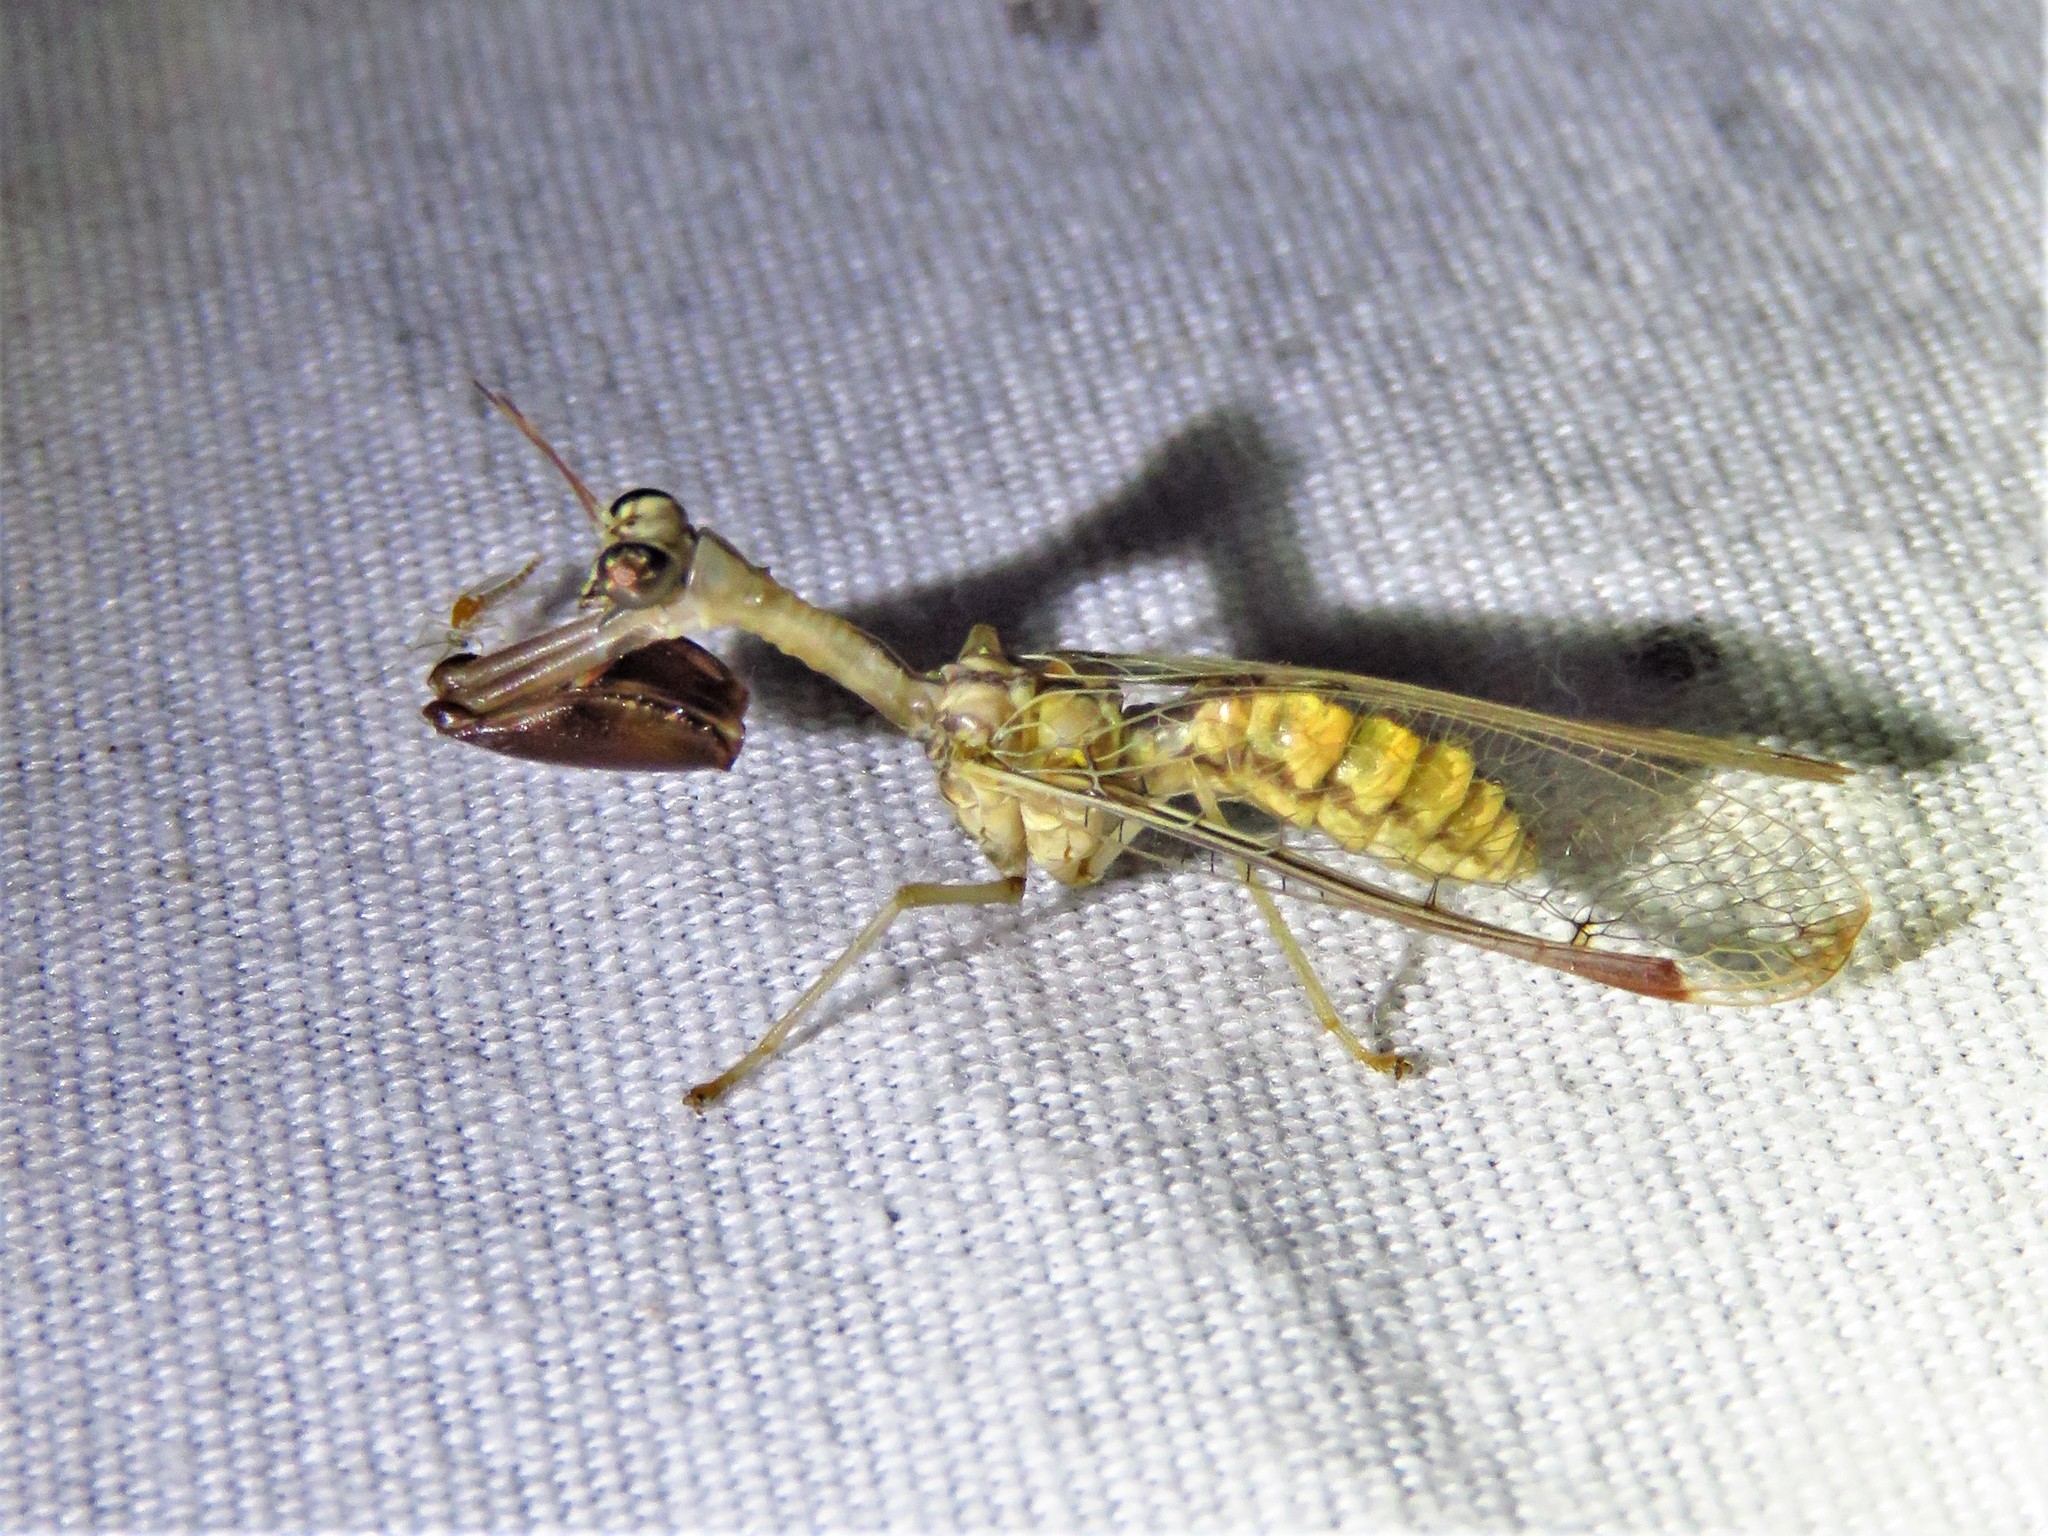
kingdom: Animalia
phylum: Arthropoda
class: Insecta
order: Neuroptera
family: Mantispidae
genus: Dicromantispa
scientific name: Dicromantispa interrupta
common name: Four-spotted mantidfly
